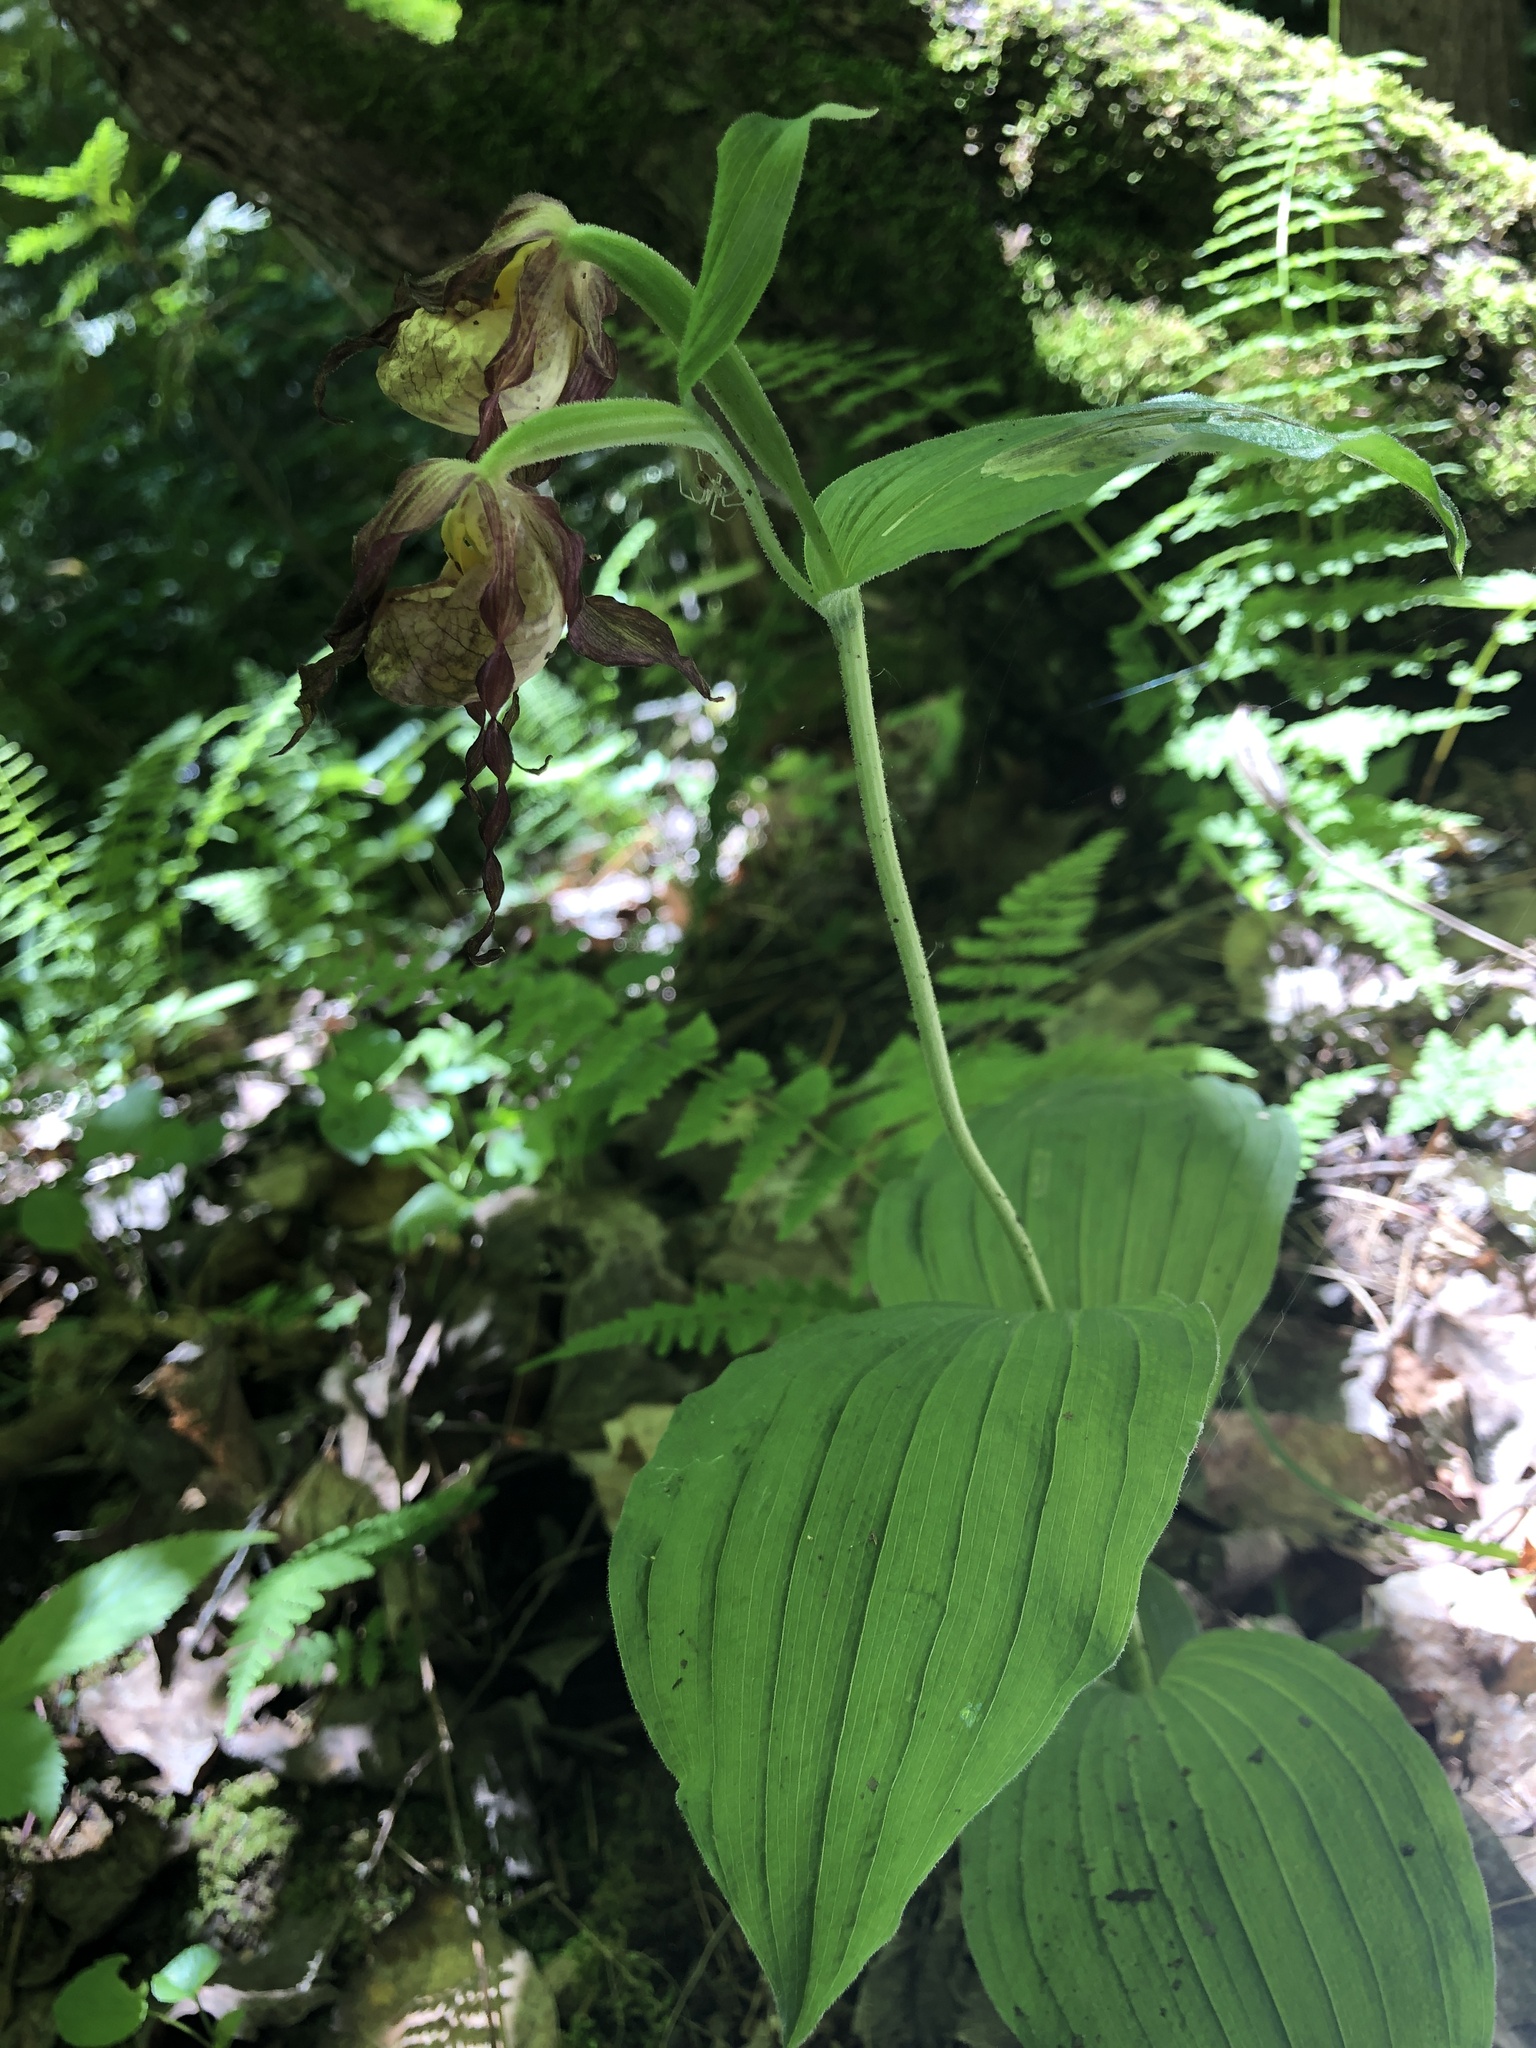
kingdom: Plantae
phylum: Tracheophyta
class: Liliopsida
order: Asparagales
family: Orchidaceae
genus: Cypripedium
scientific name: Cypripedium parviflorum
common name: American yellow lady's-slipper
